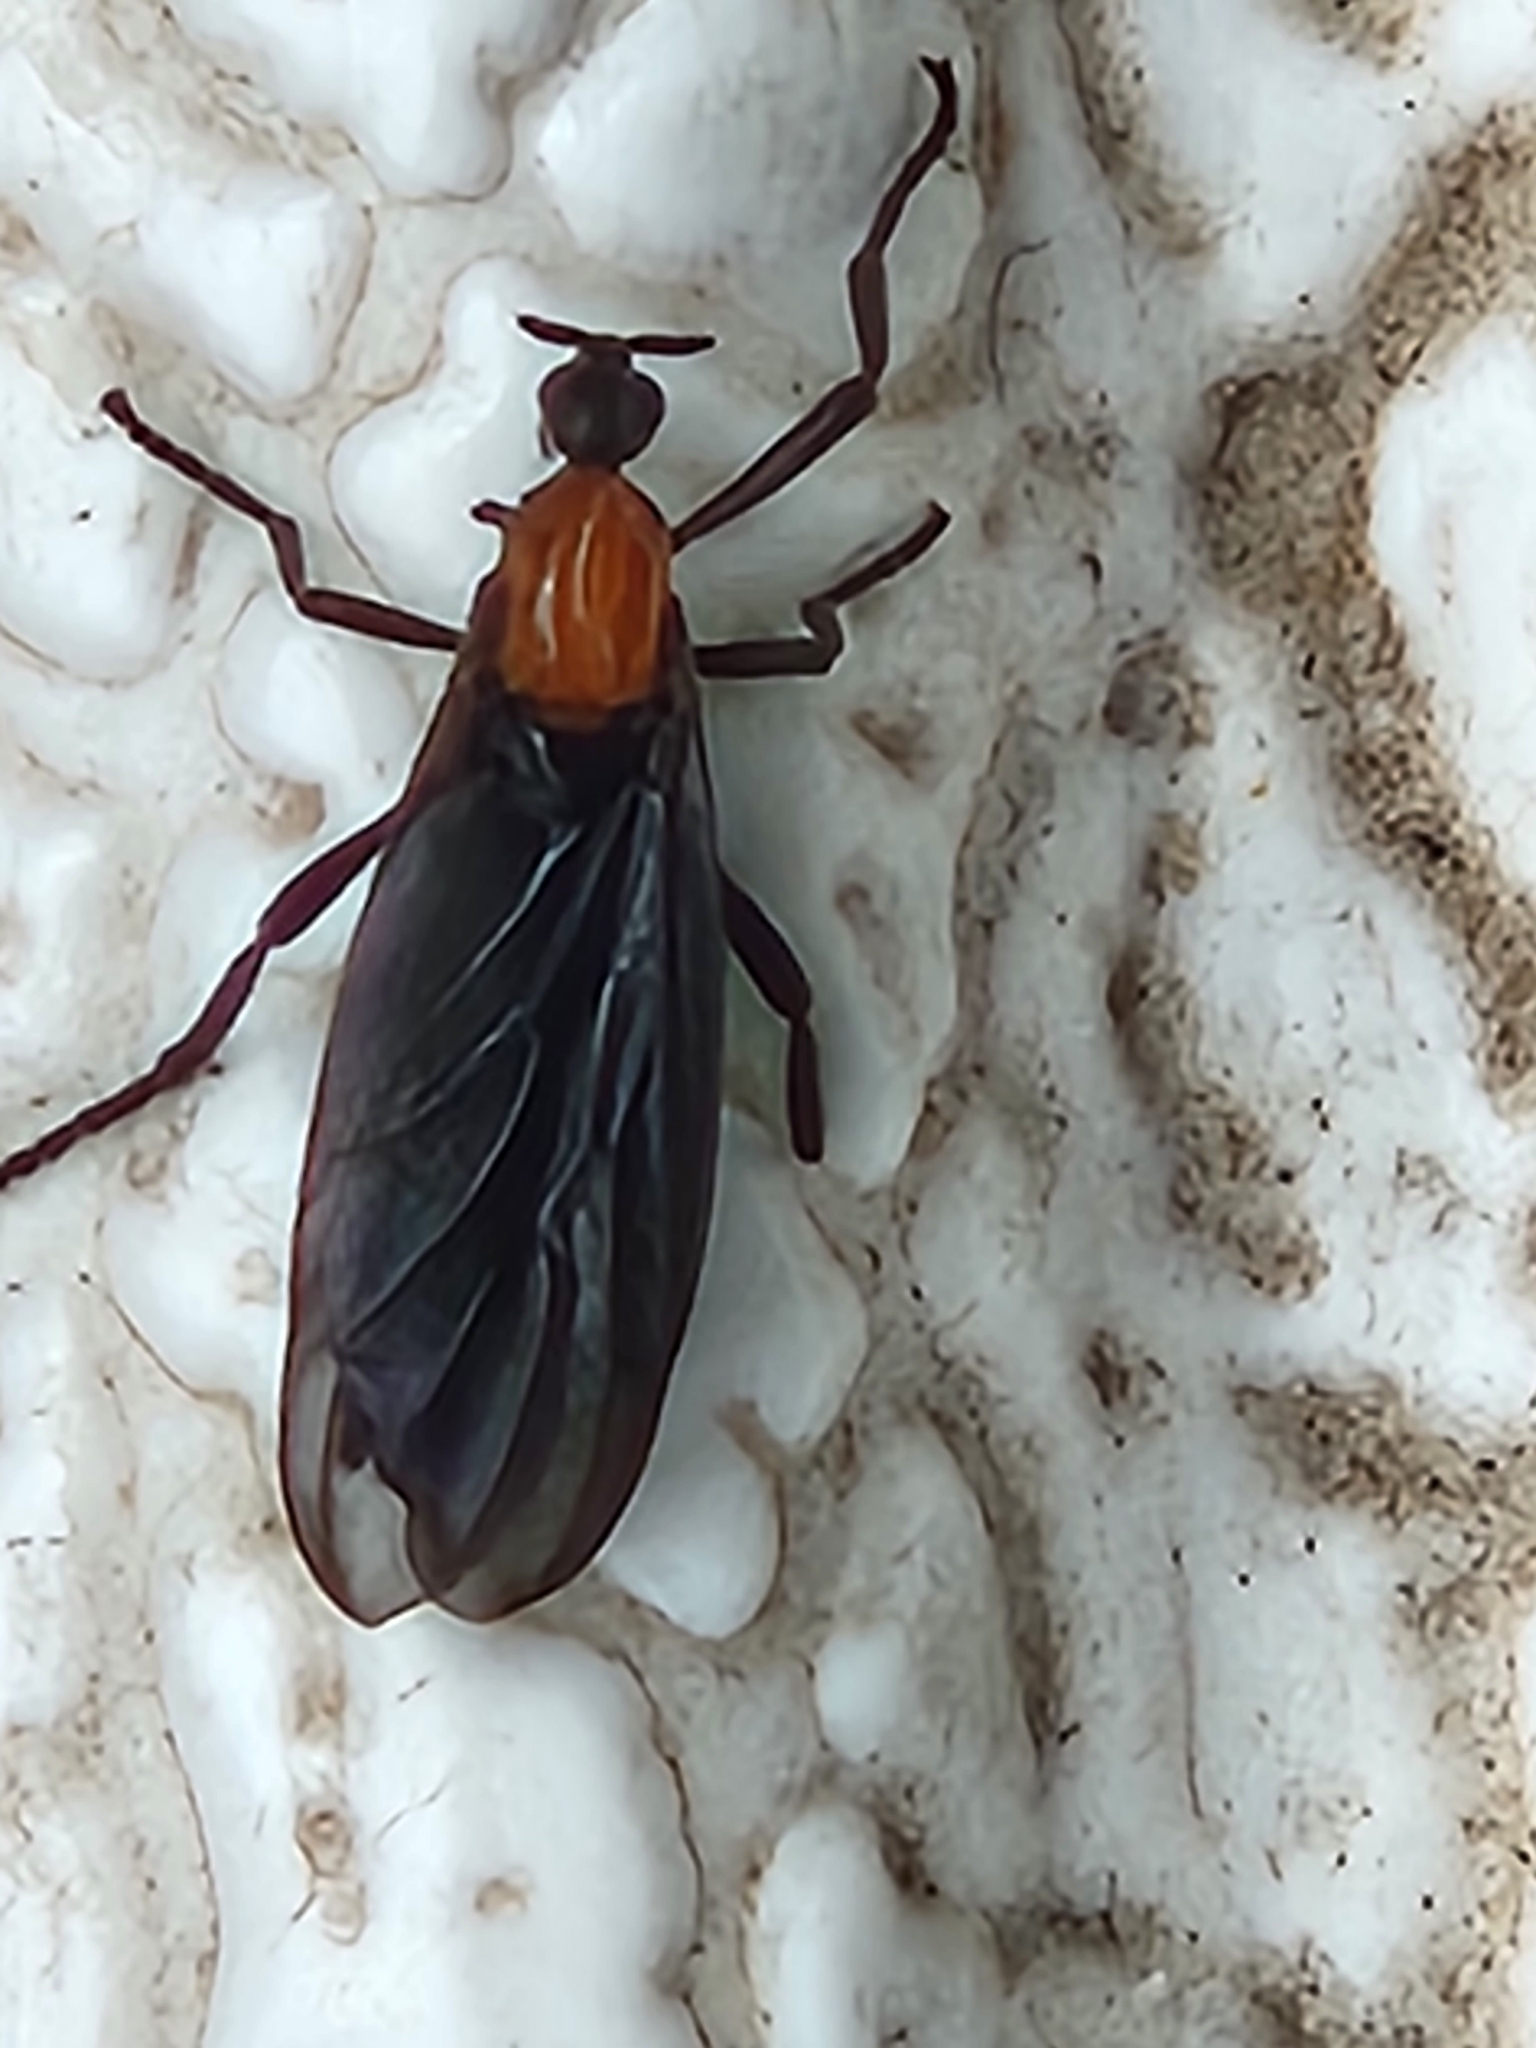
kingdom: Animalia
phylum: Arthropoda
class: Insecta
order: Diptera
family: Bibionidae
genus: Plecia
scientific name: Plecia nearctica
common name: March fly
